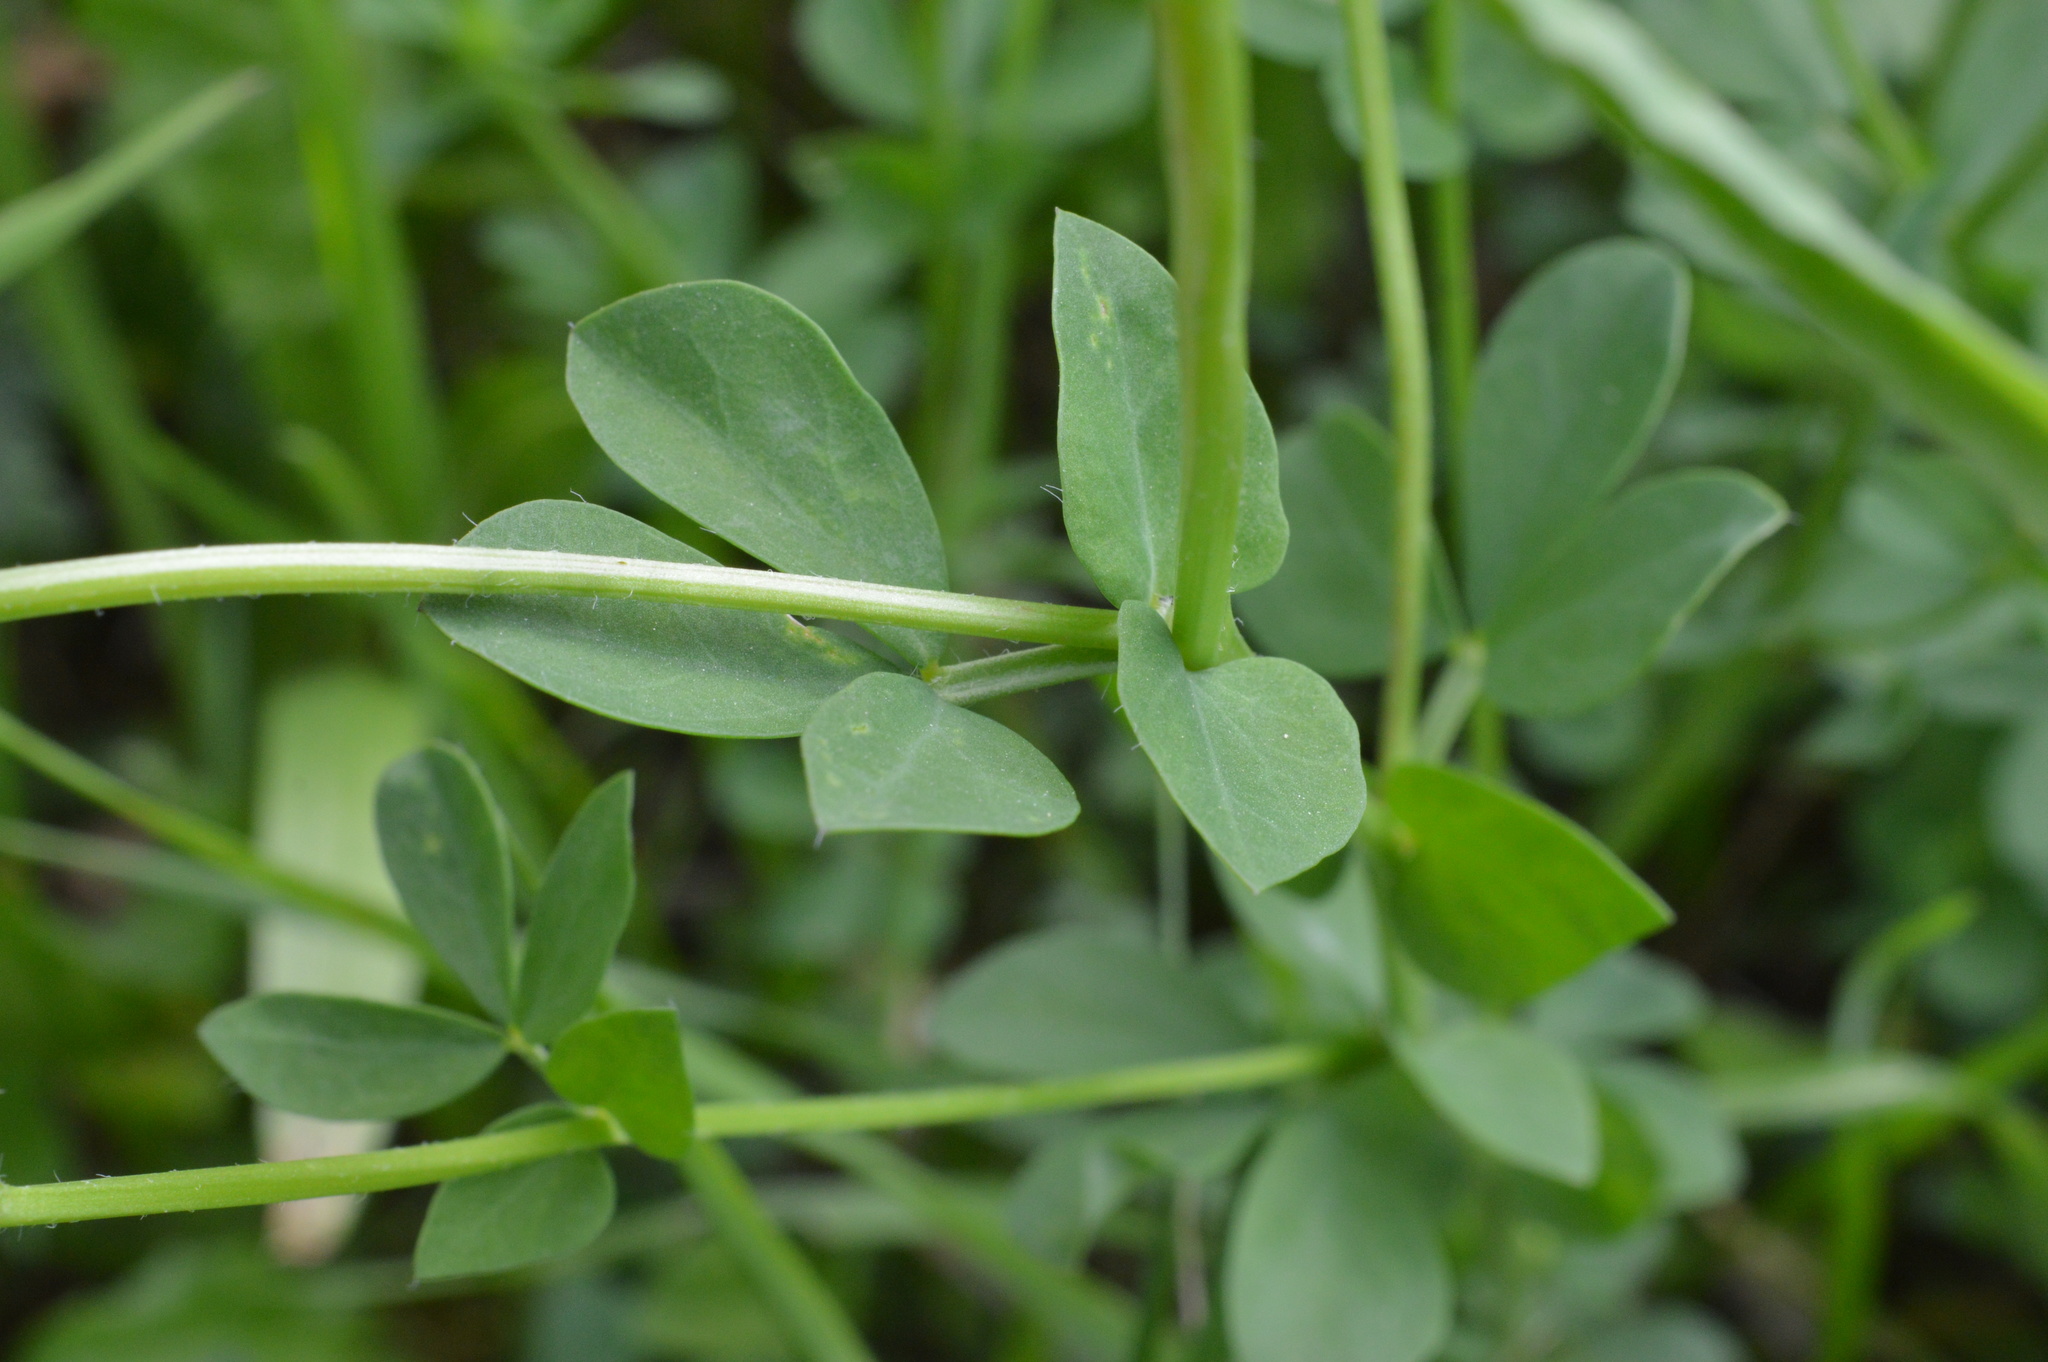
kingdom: Plantae
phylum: Tracheophyta
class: Magnoliopsida
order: Fabales
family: Fabaceae
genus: Lotus
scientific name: Lotus corniculatus
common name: Common bird's-foot-trefoil
